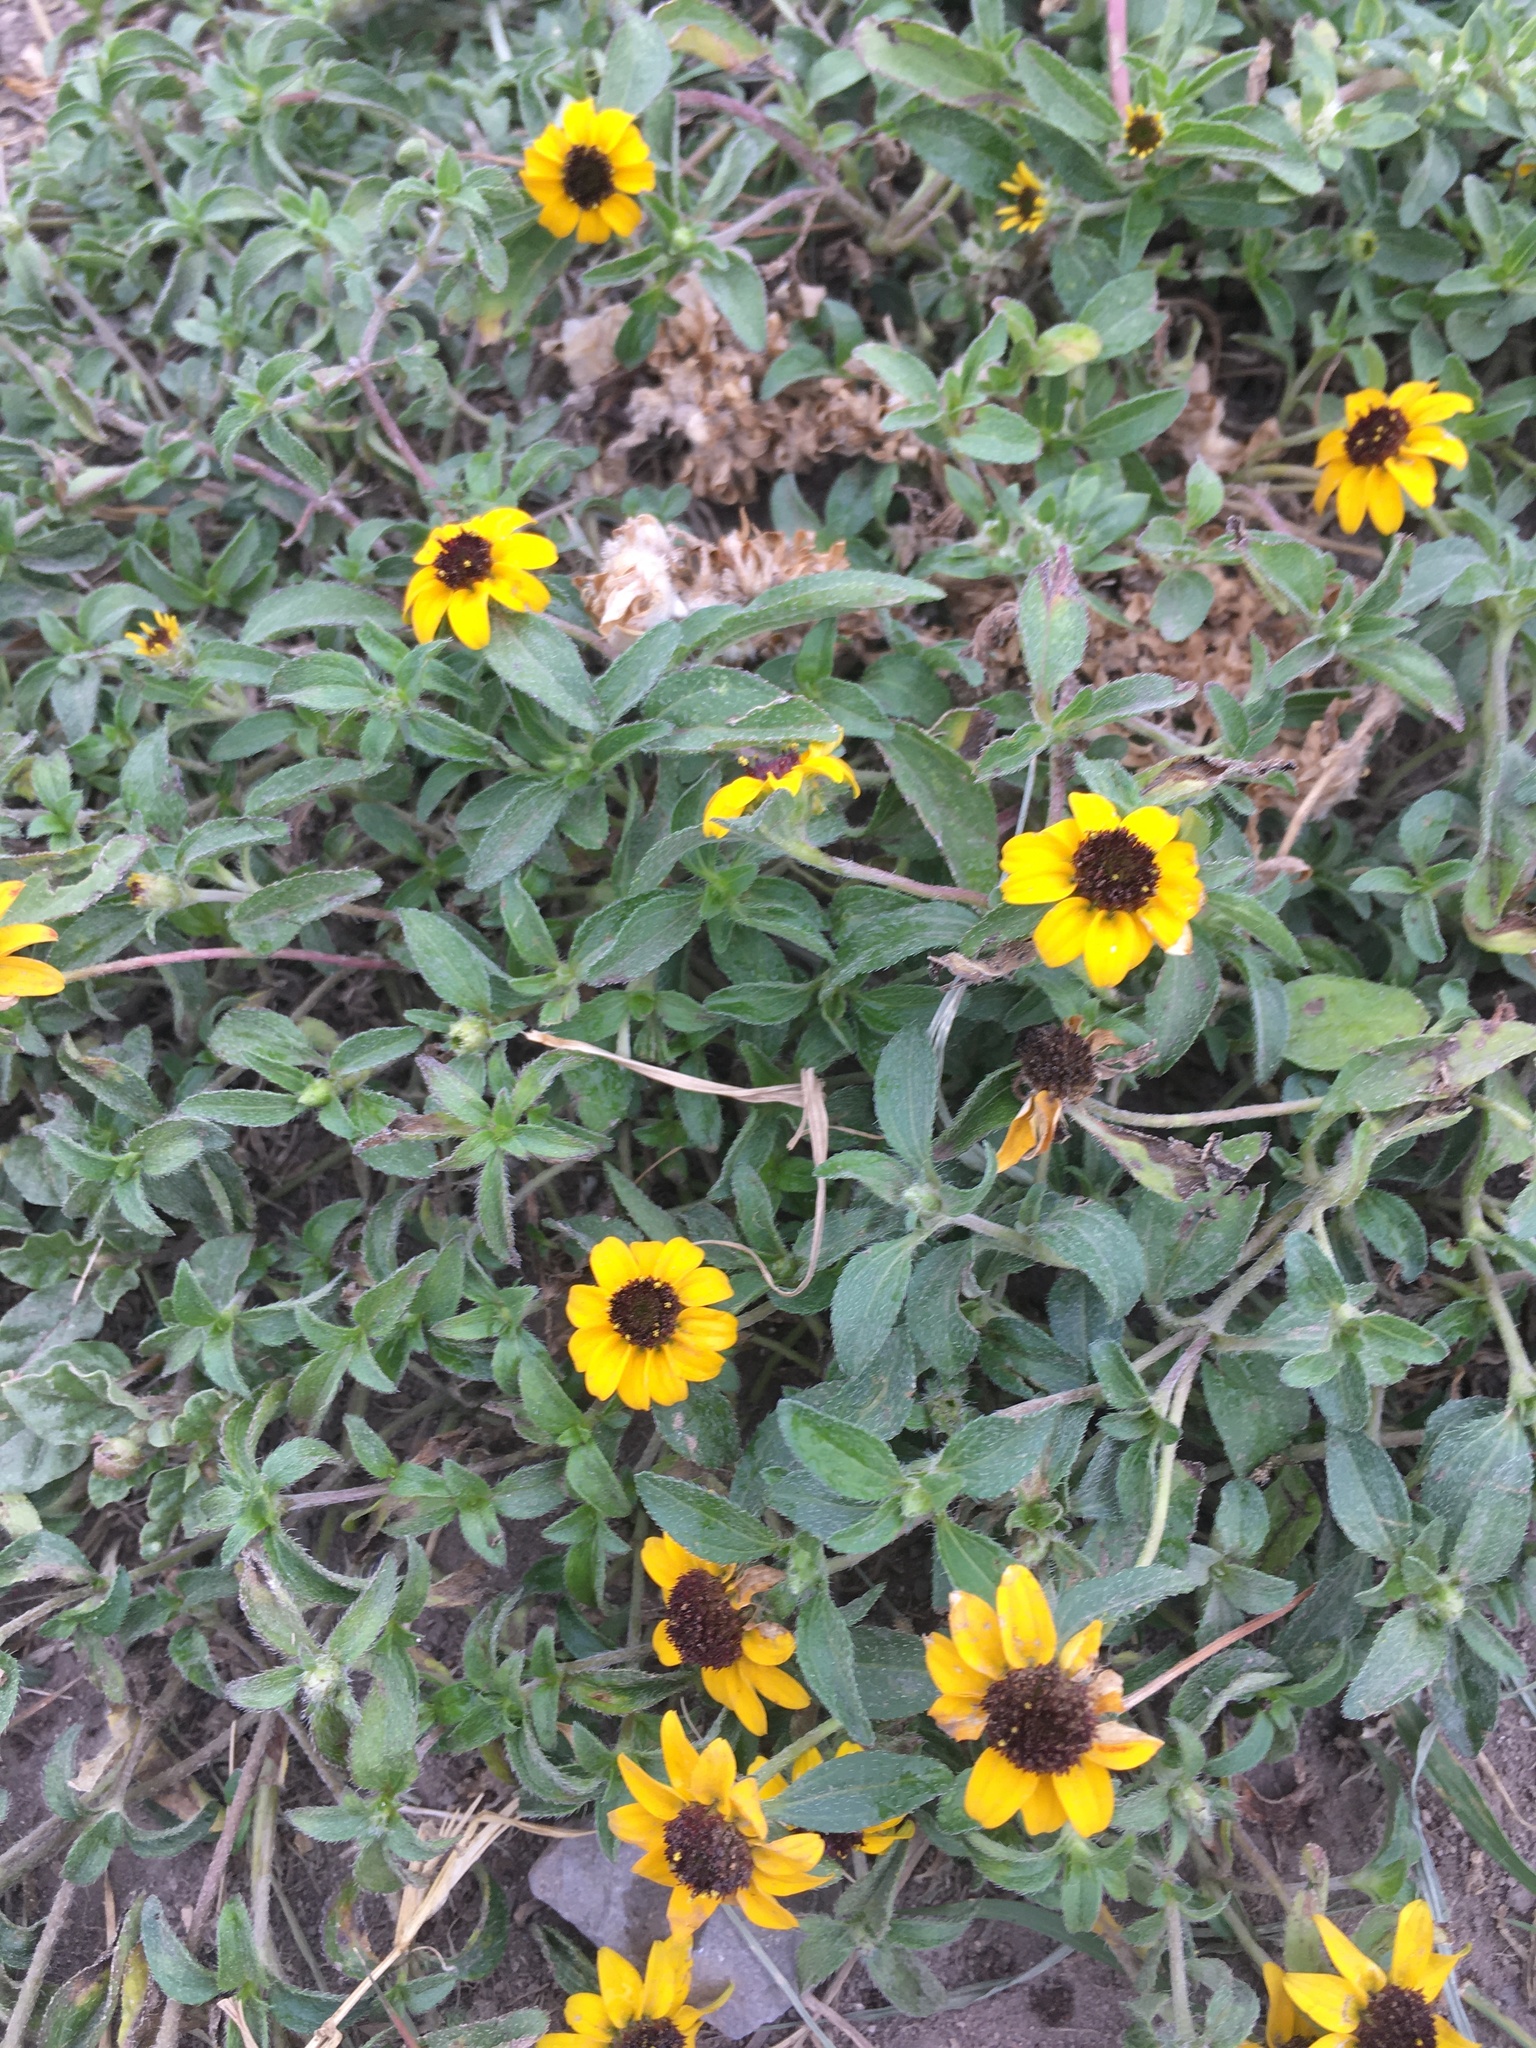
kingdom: Plantae
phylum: Tracheophyta
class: Magnoliopsida
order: Asterales
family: Asteraceae
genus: Sanvitalia
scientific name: Sanvitalia procumbens
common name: Mexican creeping zinnia
